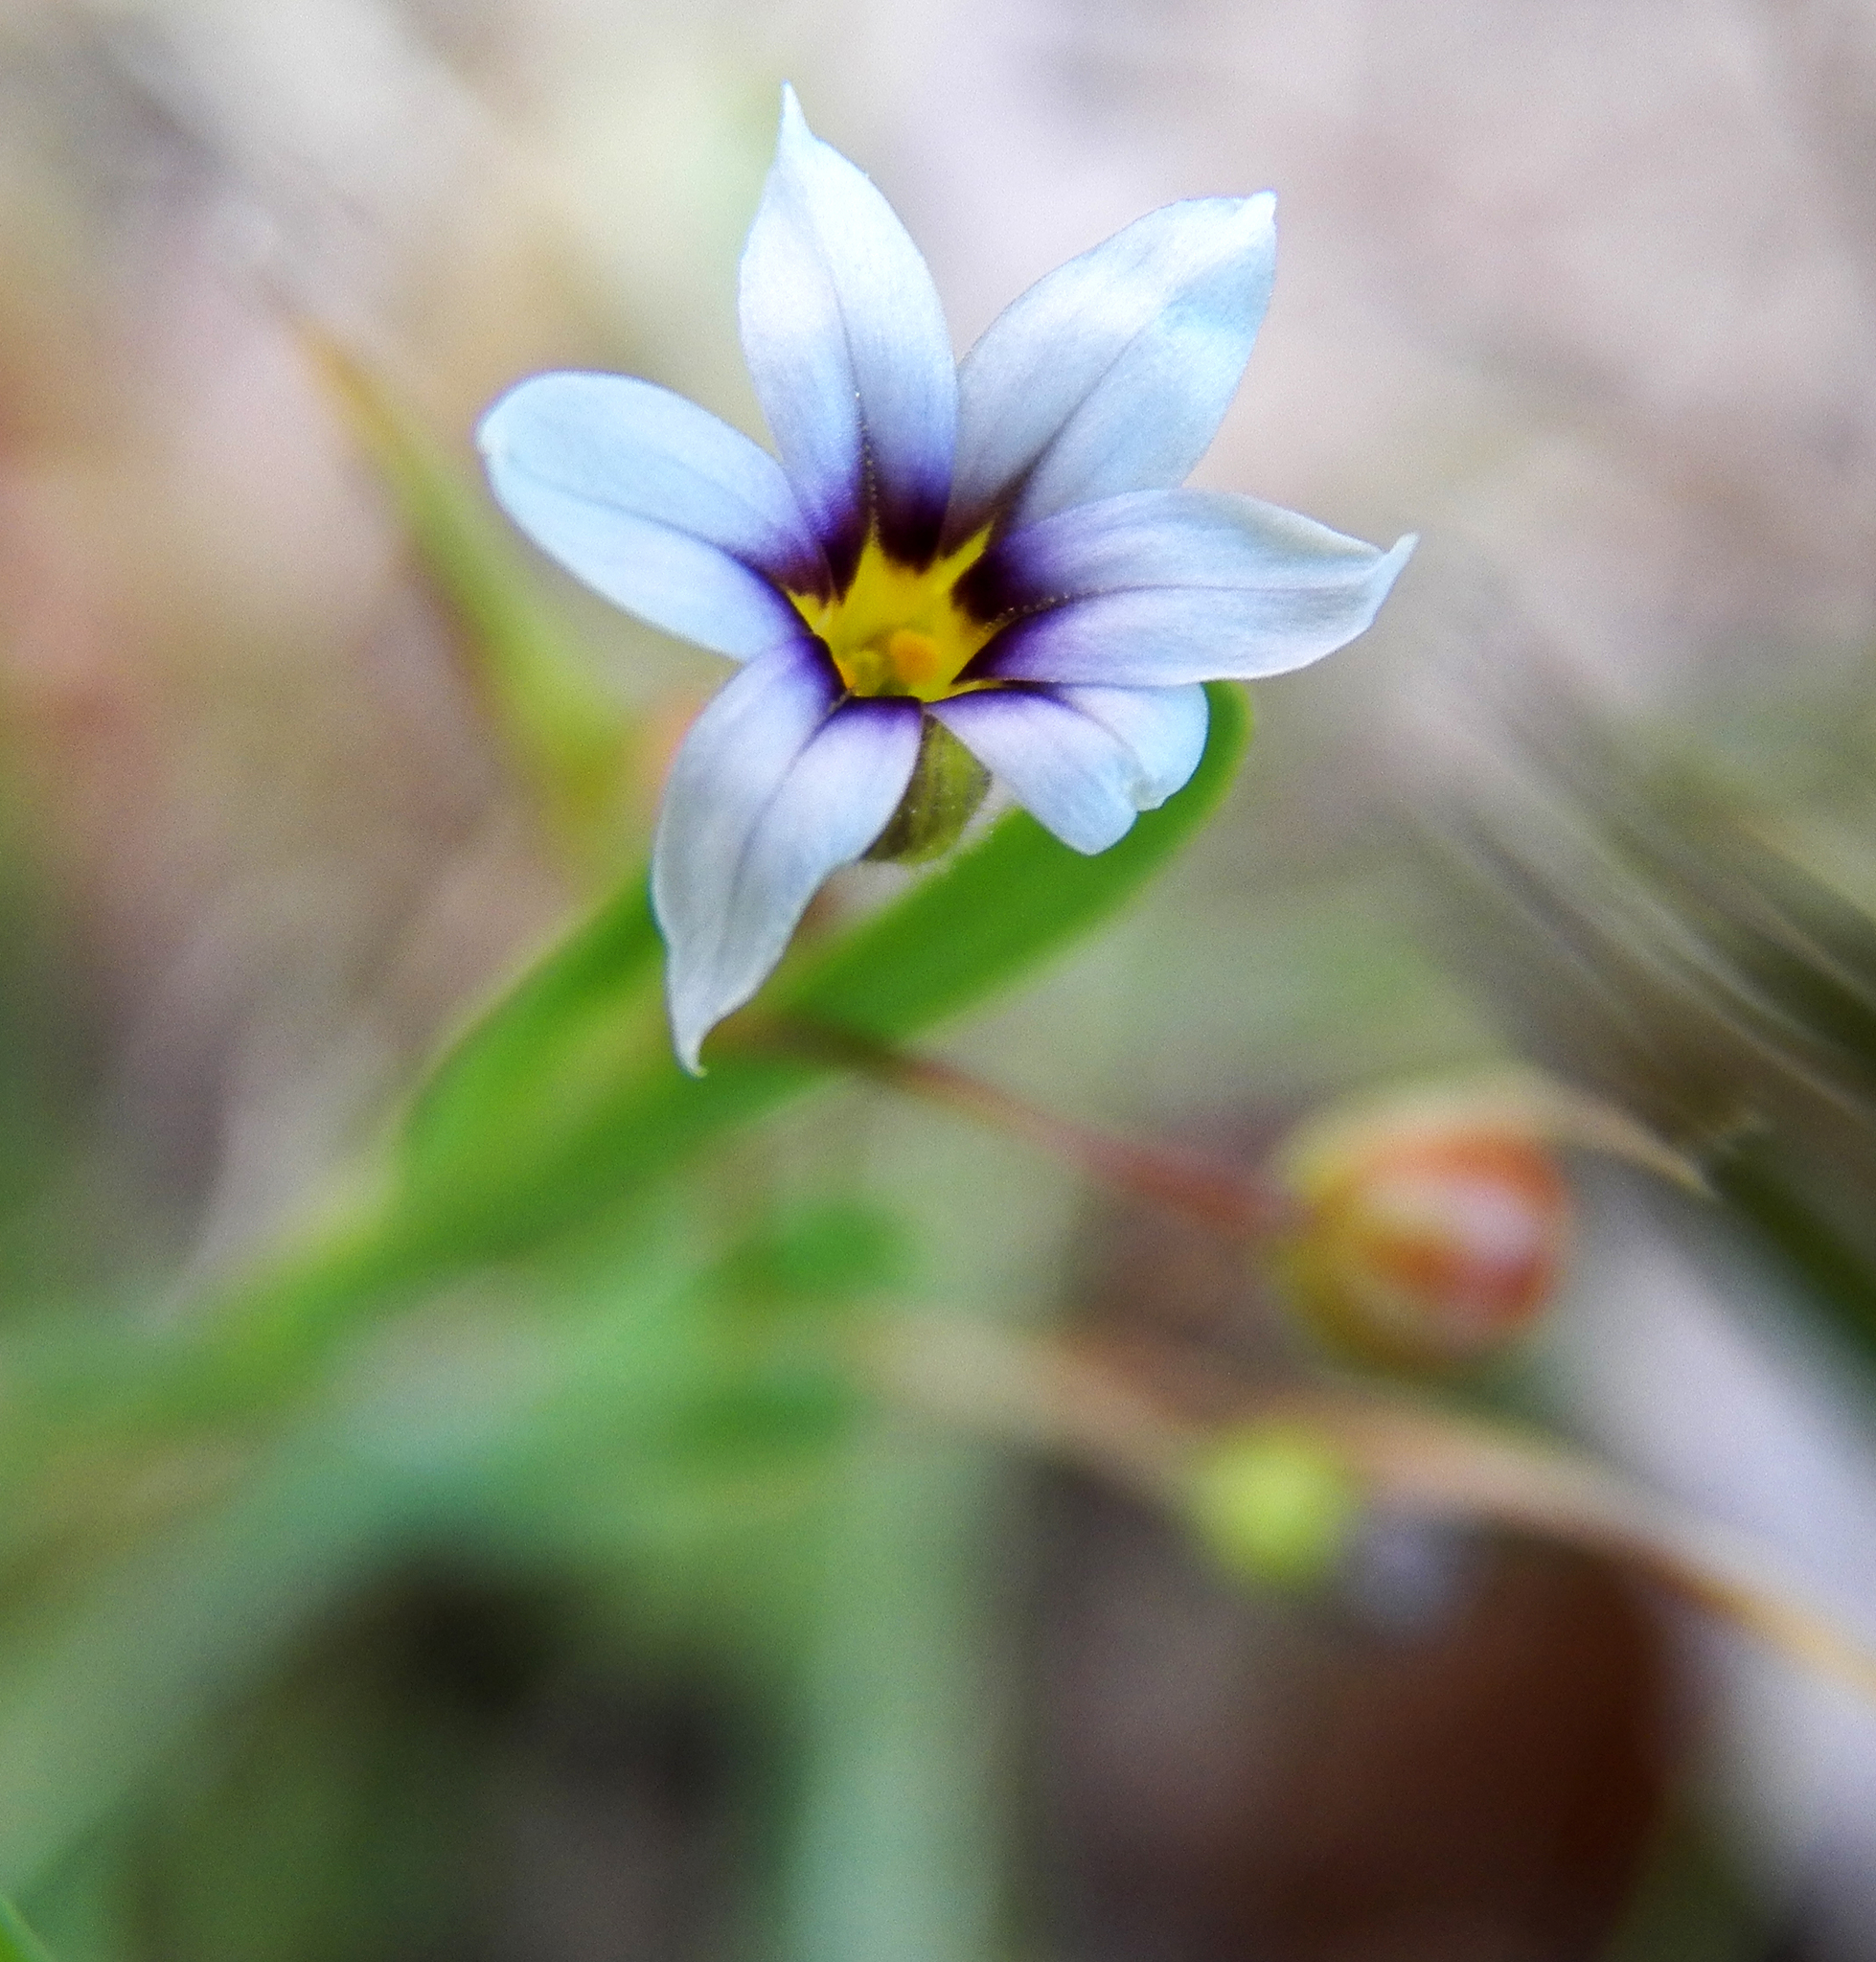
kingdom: Plantae
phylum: Tracheophyta
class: Liliopsida
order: Asparagales
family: Iridaceae
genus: Sisyrinchium
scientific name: Sisyrinchium micranthum
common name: Bermuda pigroot
